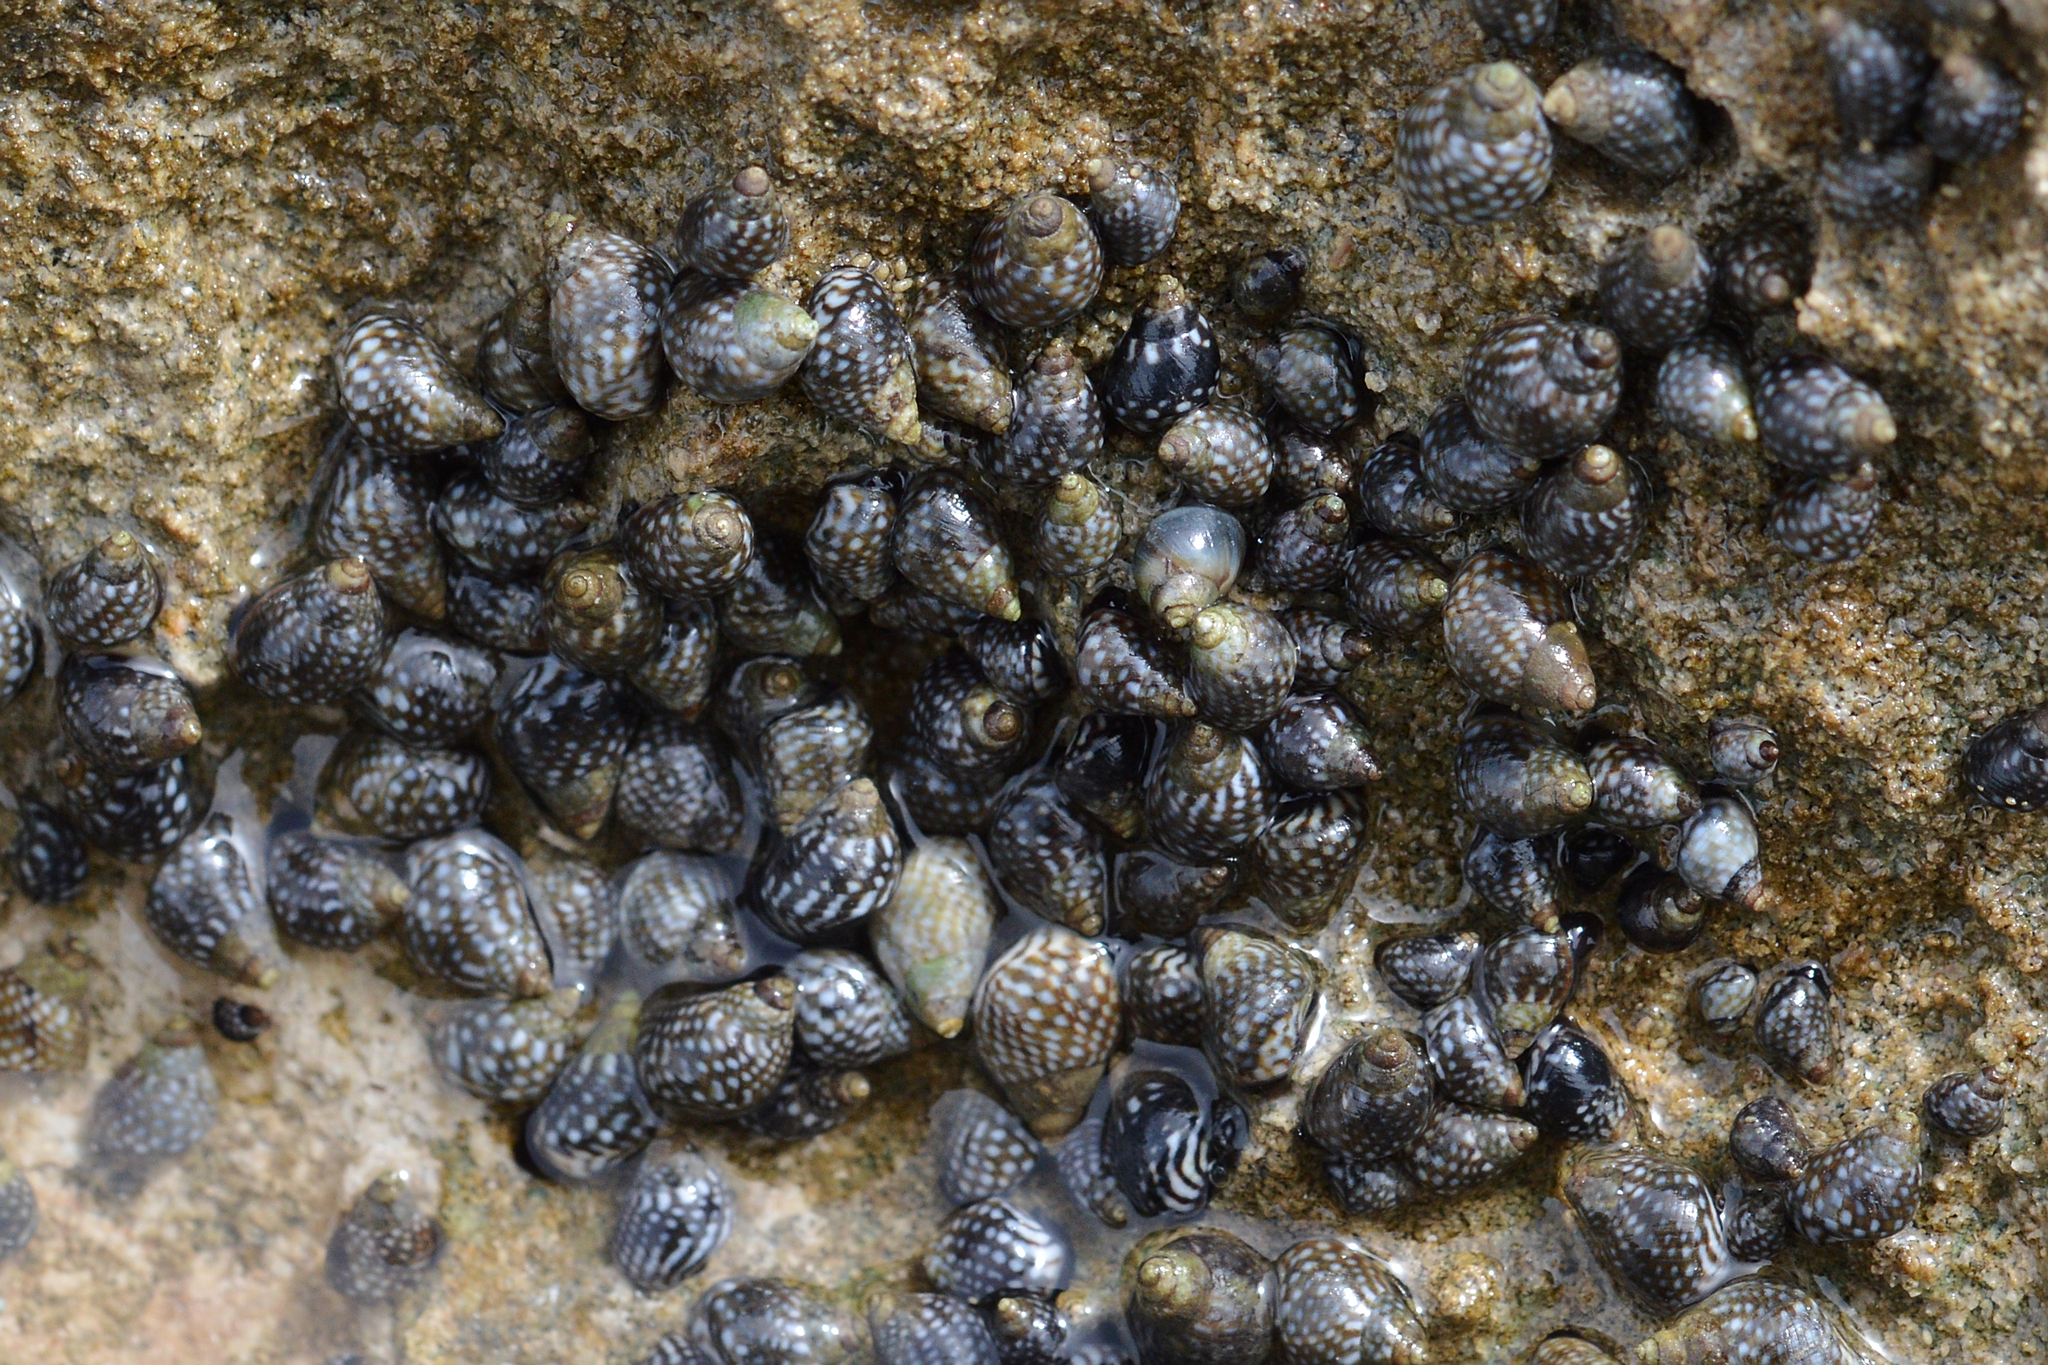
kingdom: Animalia
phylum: Mollusca
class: Gastropoda
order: Littorinimorpha
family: Littorinidae
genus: Echinolittorina
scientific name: Echinolittorina punctata
